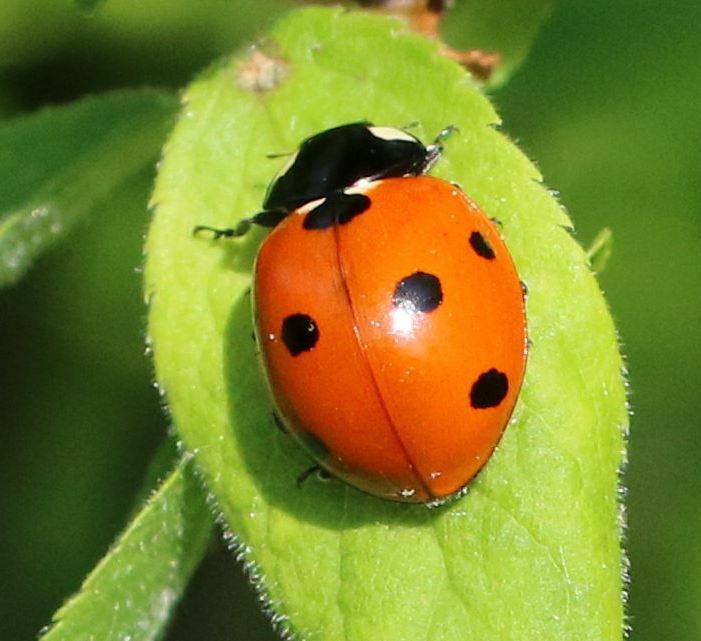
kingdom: Animalia
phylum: Arthropoda
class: Insecta
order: Coleoptera
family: Coccinellidae
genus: Coccinella
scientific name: Coccinella septempunctata
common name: Sevenspotted lady beetle
